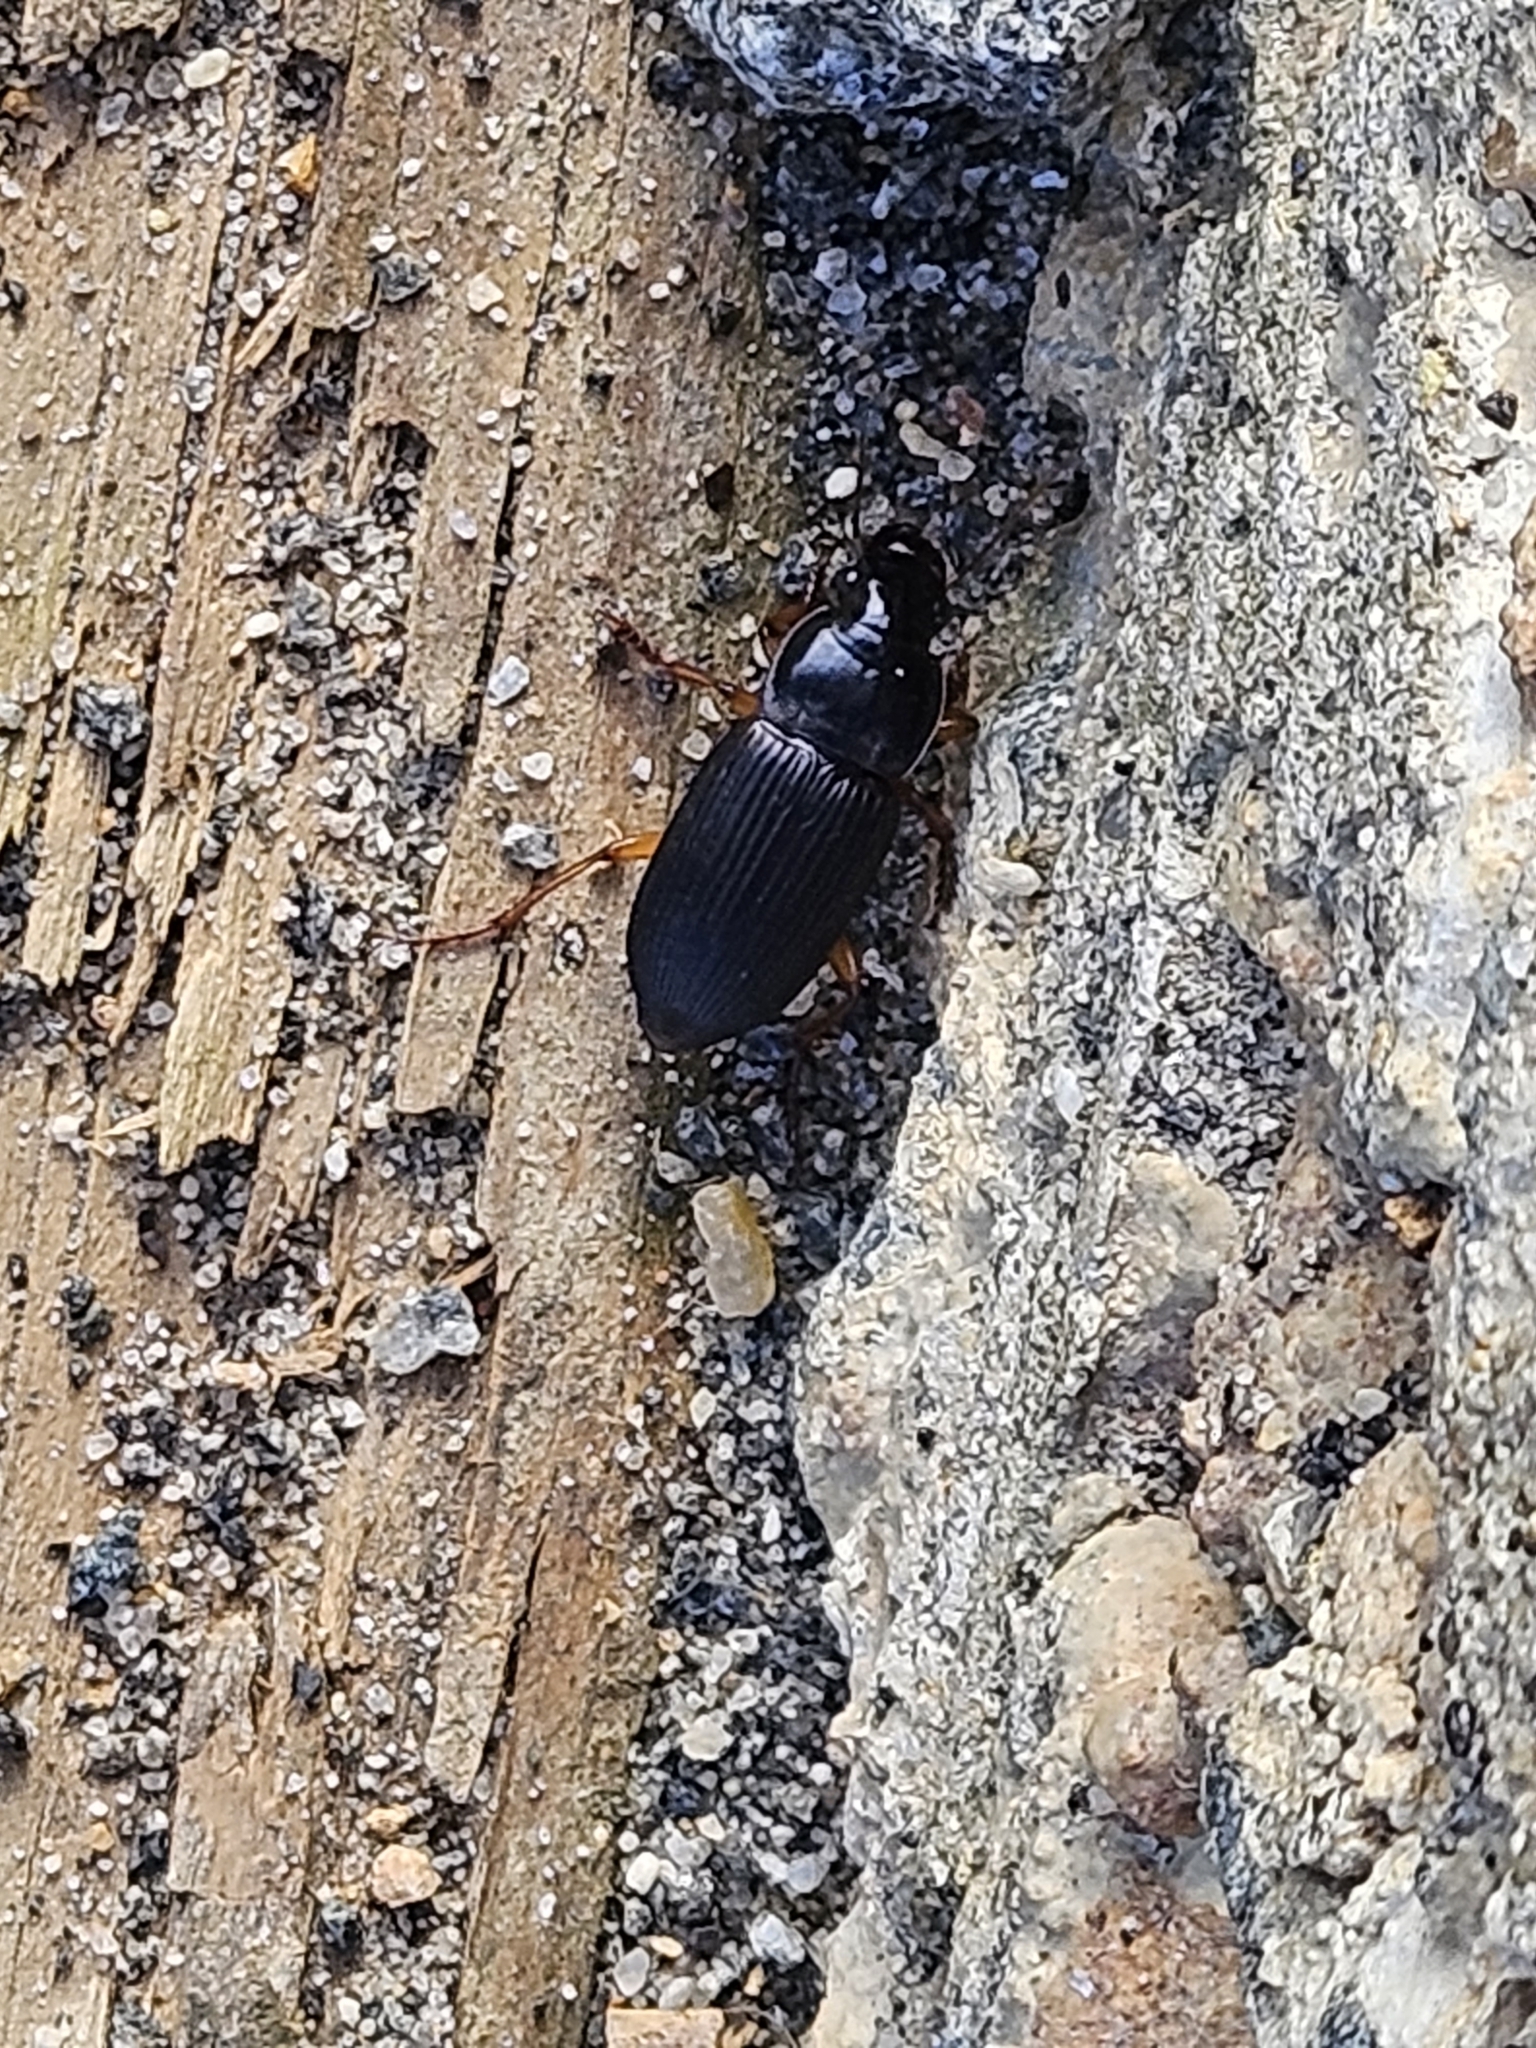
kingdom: Animalia
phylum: Arthropoda
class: Insecta
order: Coleoptera
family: Carabidae
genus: Harpalus
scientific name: Harpalus pensylvanicus
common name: Pennsylvania dingy ground beetle
